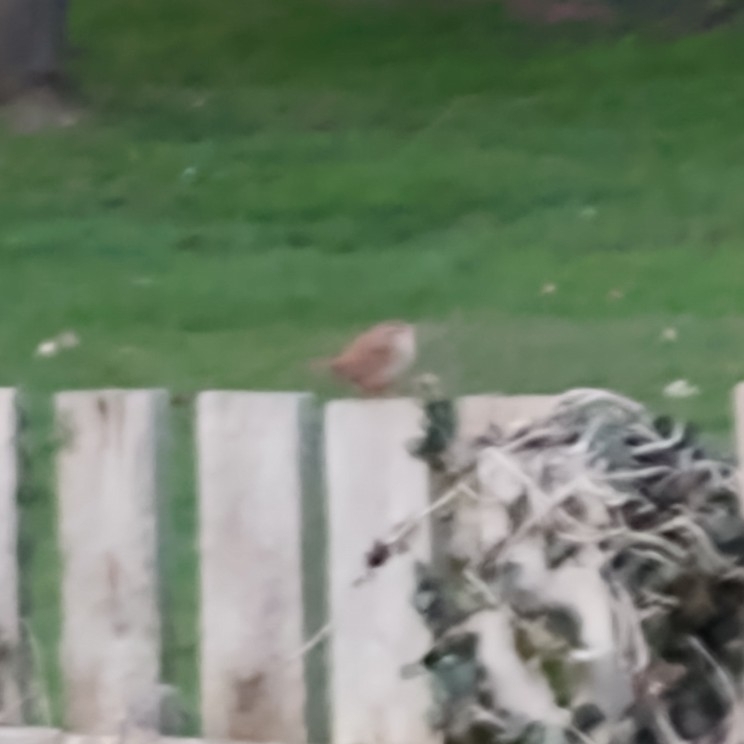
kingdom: Animalia
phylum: Chordata
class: Aves
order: Passeriformes
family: Troglodytidae
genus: Troglodytes
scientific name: Troglodytes troglodytes
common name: Eurasian wren
